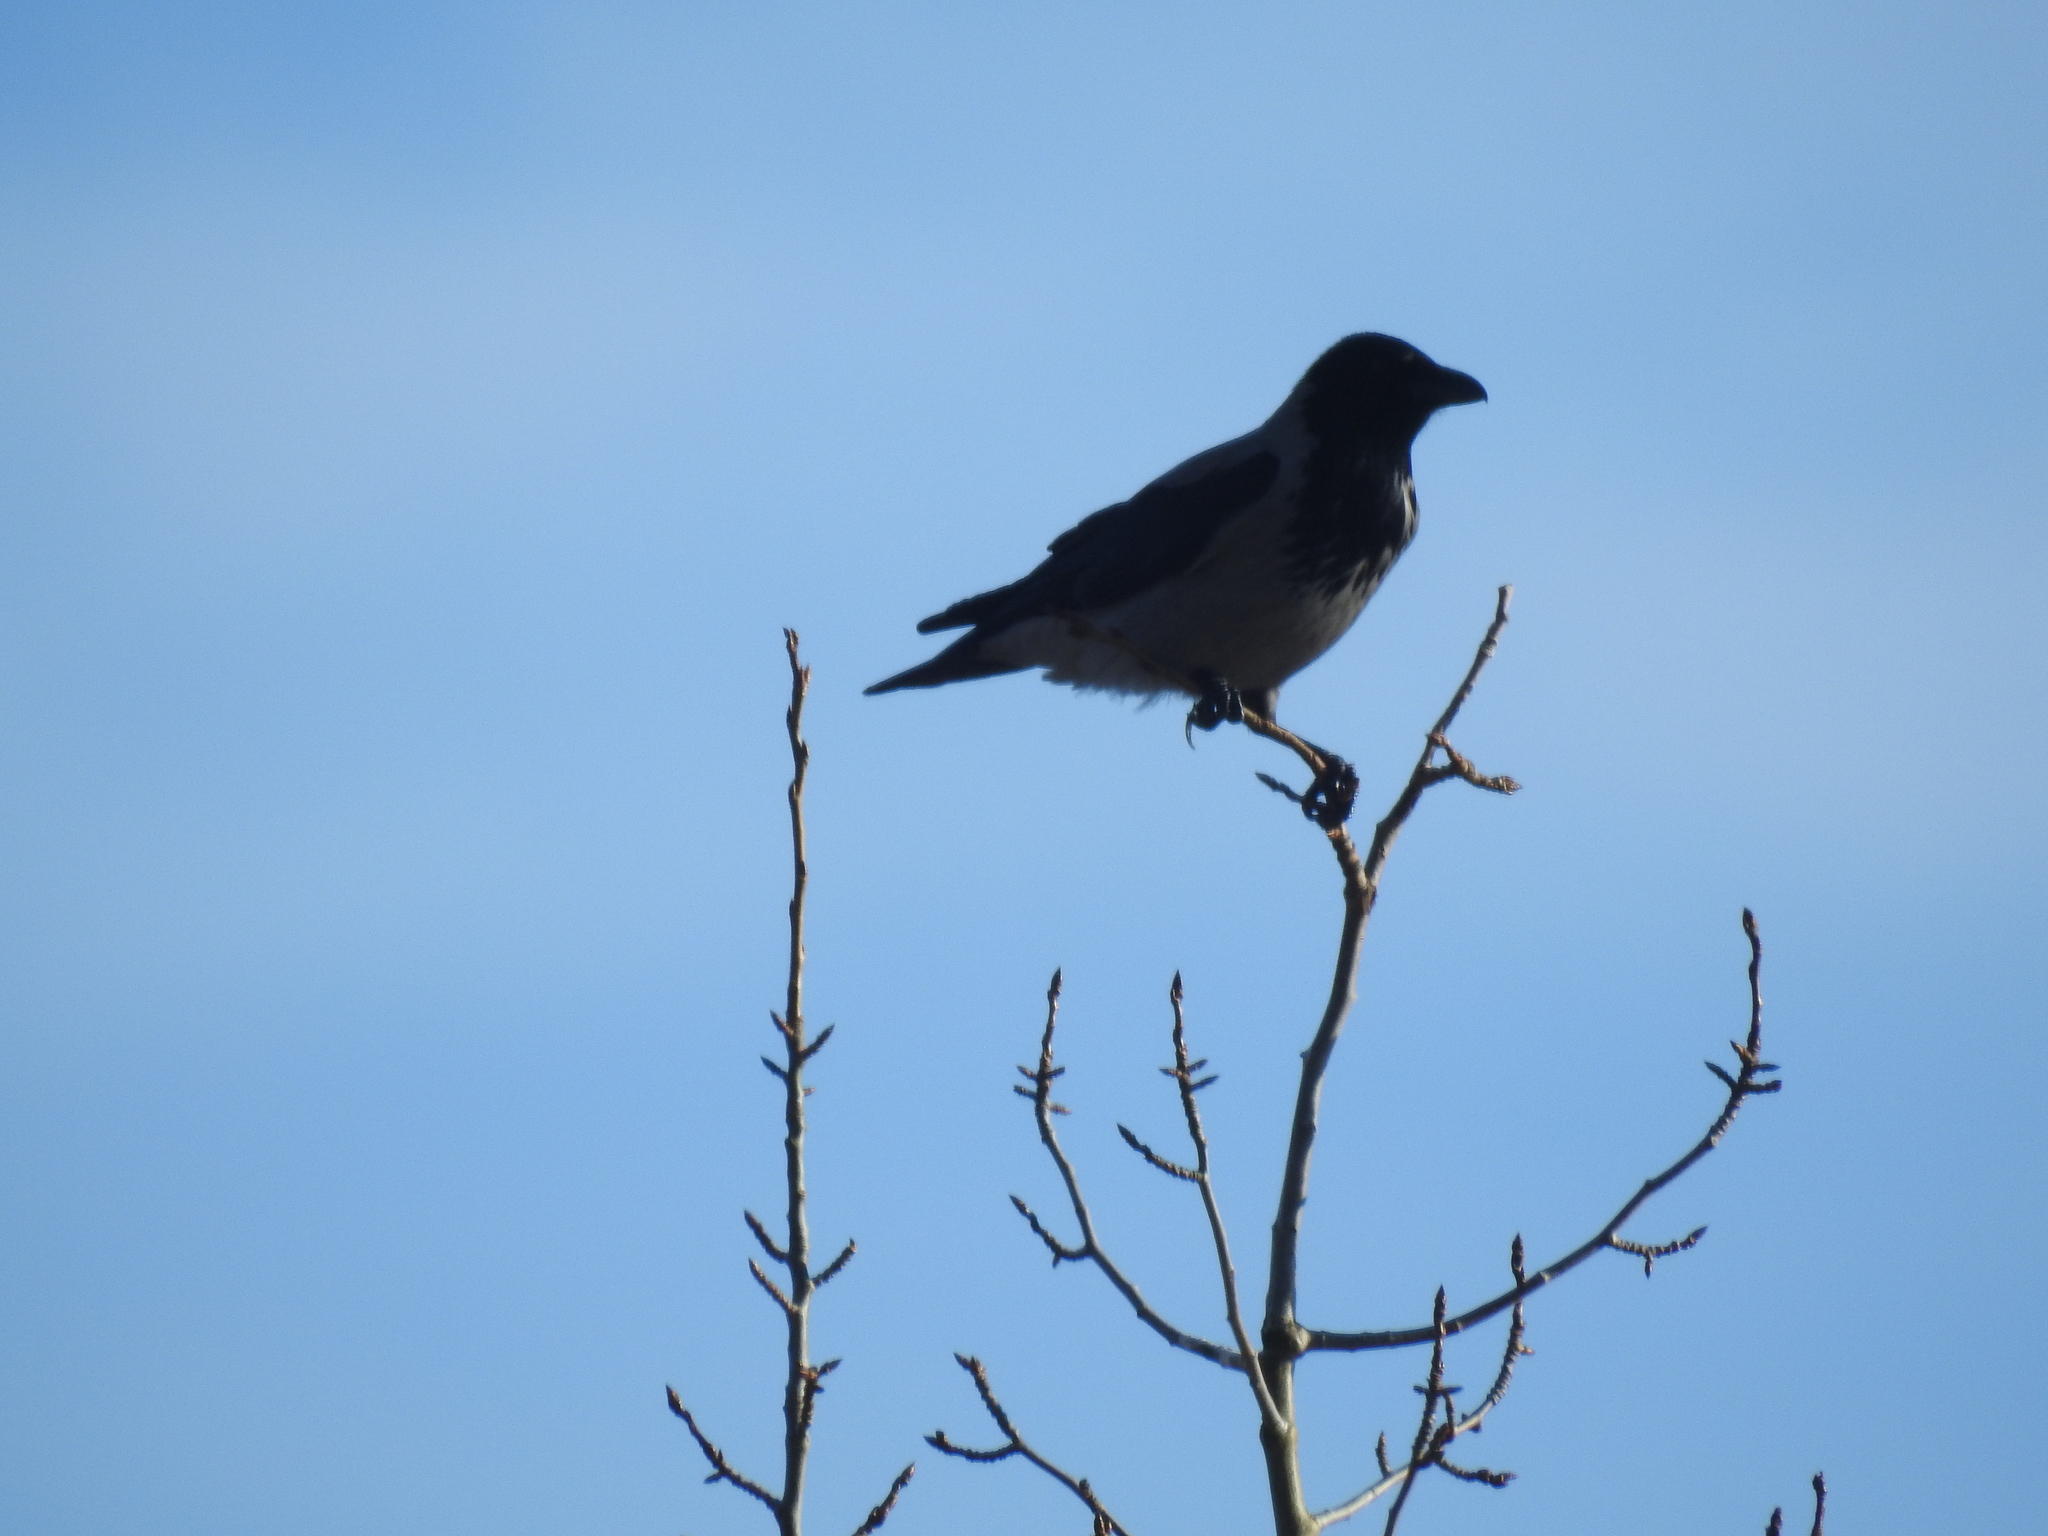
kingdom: Animalia
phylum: Chordata
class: Aves
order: Passeriformes
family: Corvidae
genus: Corvus
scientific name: Corvus cornix
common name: Hooded crow
